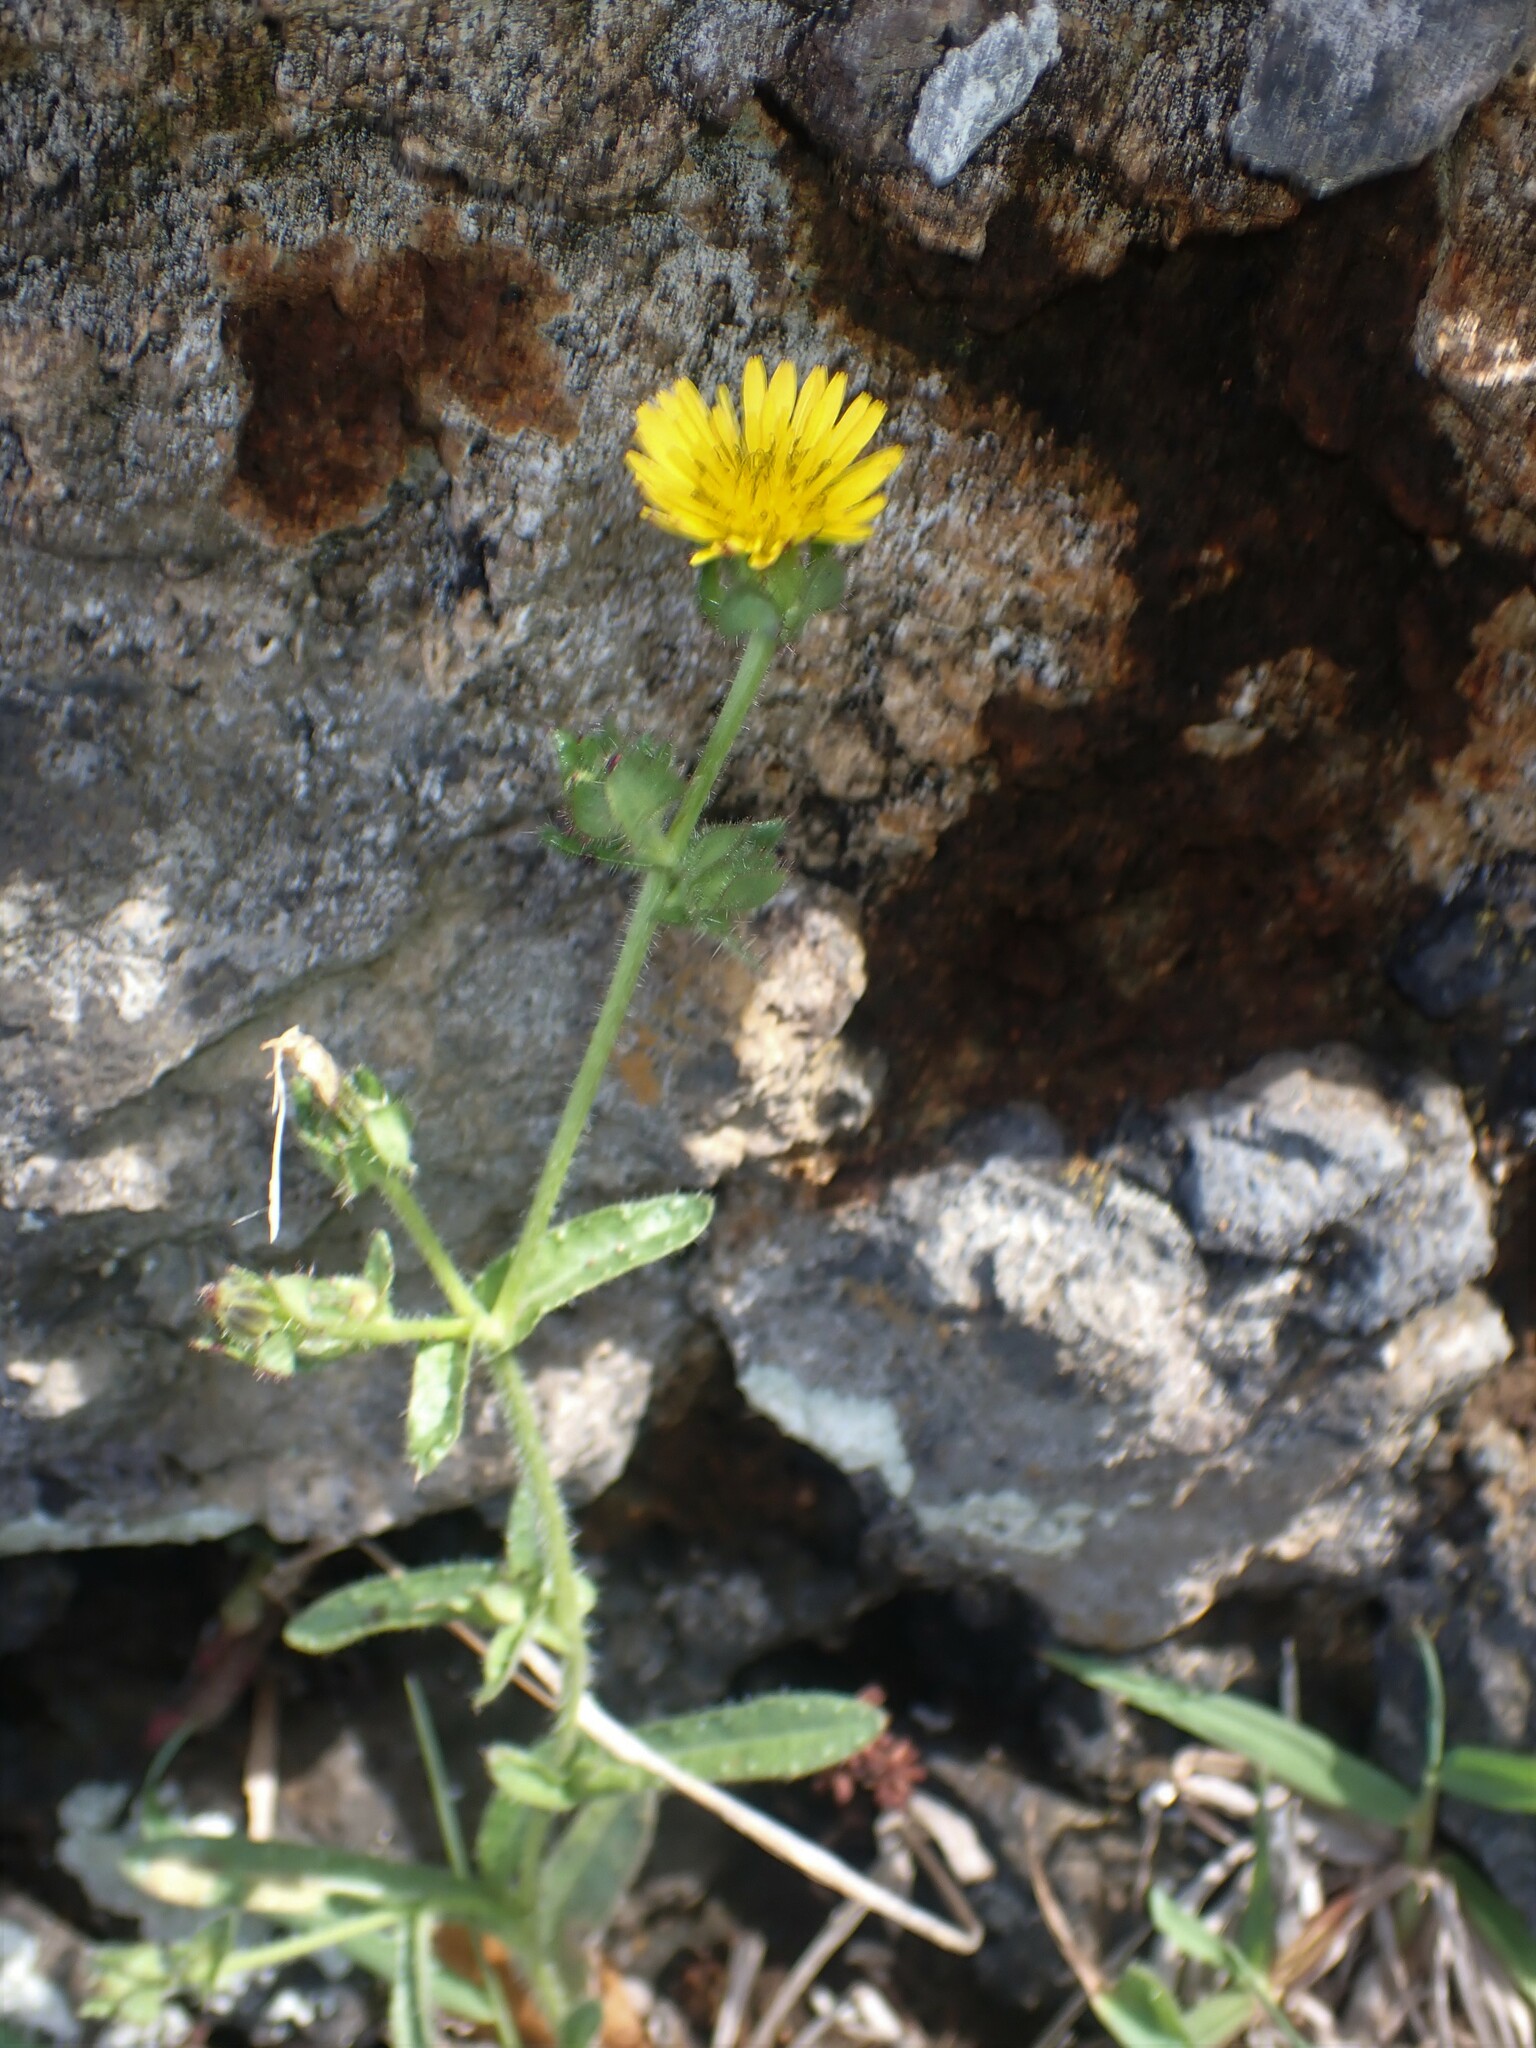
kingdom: Plantae
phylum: Tracheophyta
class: Magnoliopsida
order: Asterales
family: Asteraceae
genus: Helminthotheca
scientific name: Helminthotheca echioides
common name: Ox-tongue
